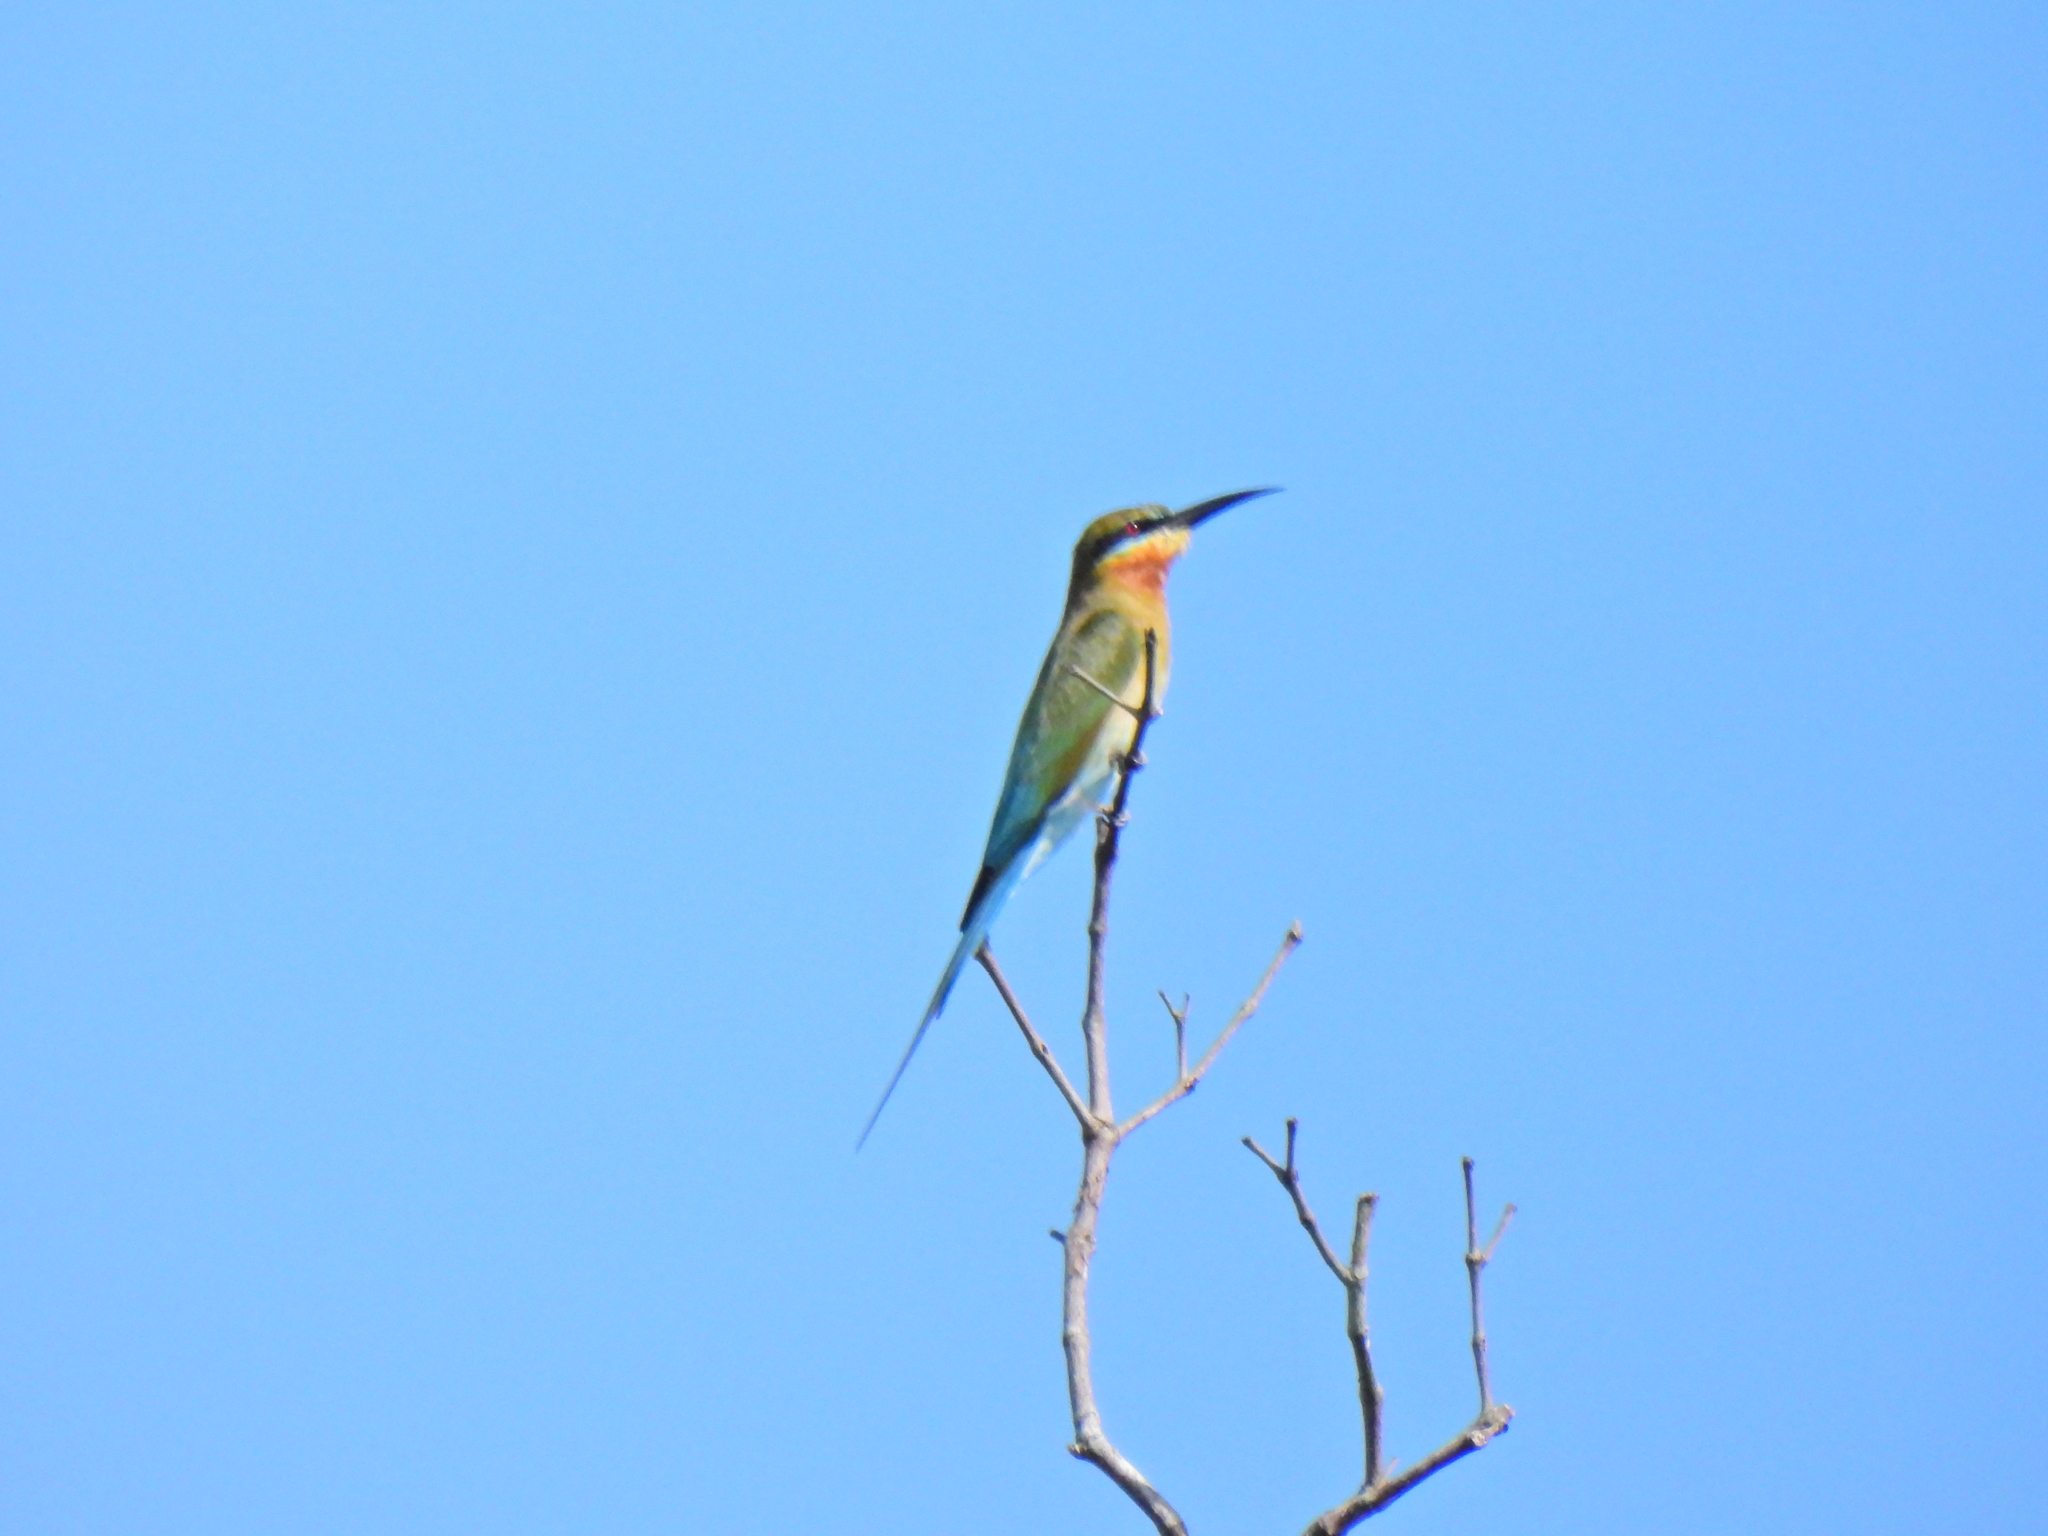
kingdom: Animalia
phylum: Chordata
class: Aves
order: Coraciiformes
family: Meropidae
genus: Merops
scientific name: Merops philippinus
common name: Blue-tailed bee-eater
